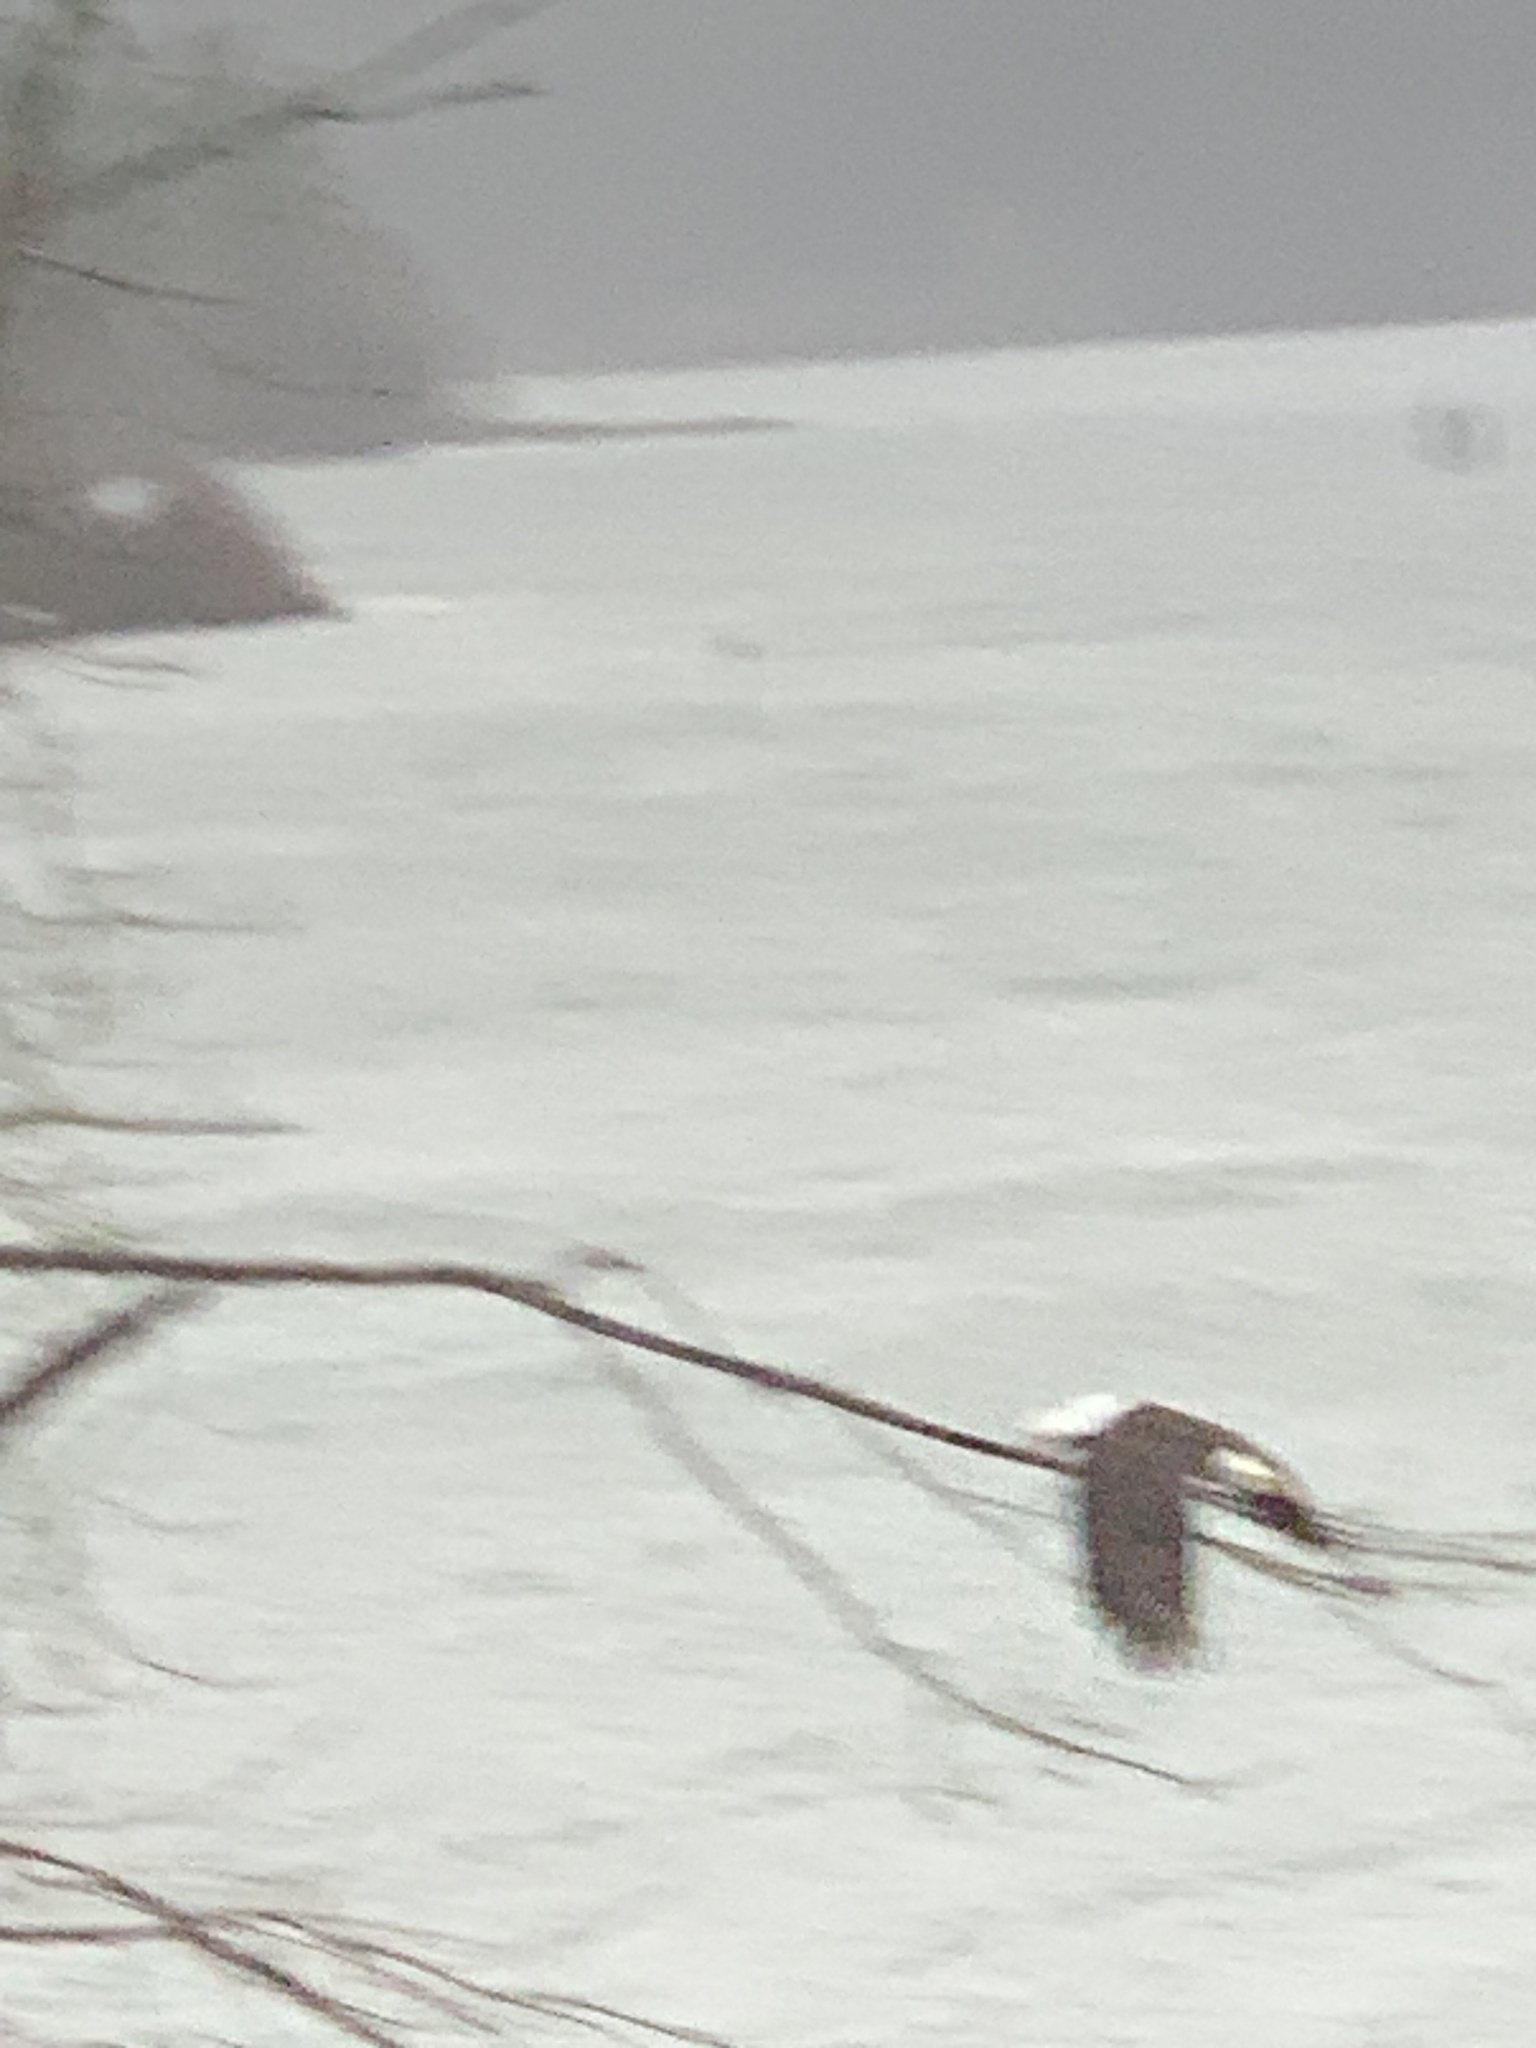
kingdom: Animalia
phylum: Chordata
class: Aves
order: Accipitriformes
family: Accipitridae
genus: Haliaeetus
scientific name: Haliaeetus leucocephalus
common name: Bald eagle
